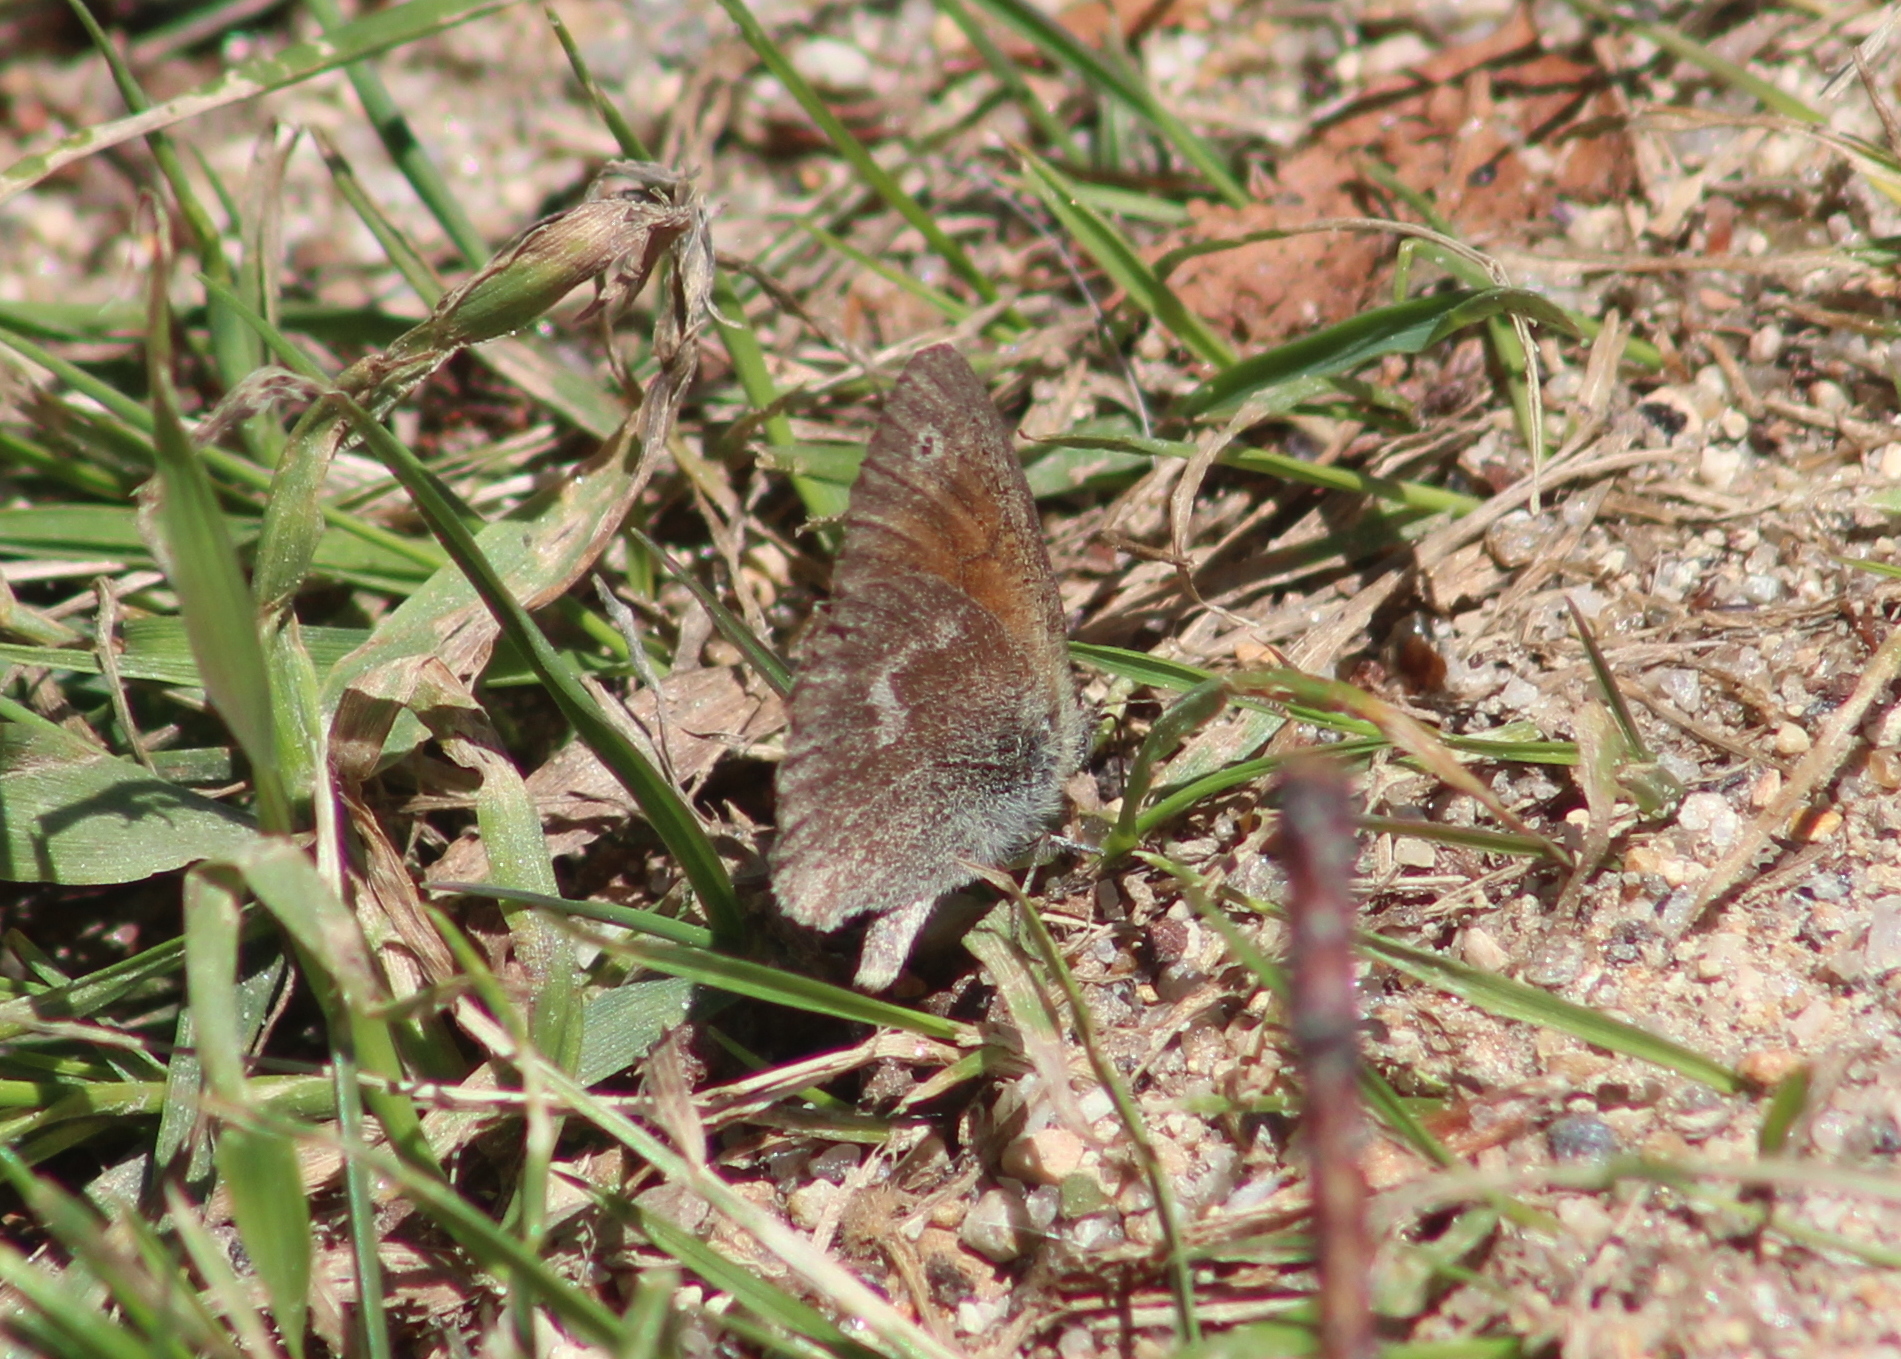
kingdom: Animalia
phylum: Arthropoda
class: Insecta
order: Lepidoptera
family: Nymphalidae
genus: Coenonympha
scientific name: Coenonympha california
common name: Common ringlet
